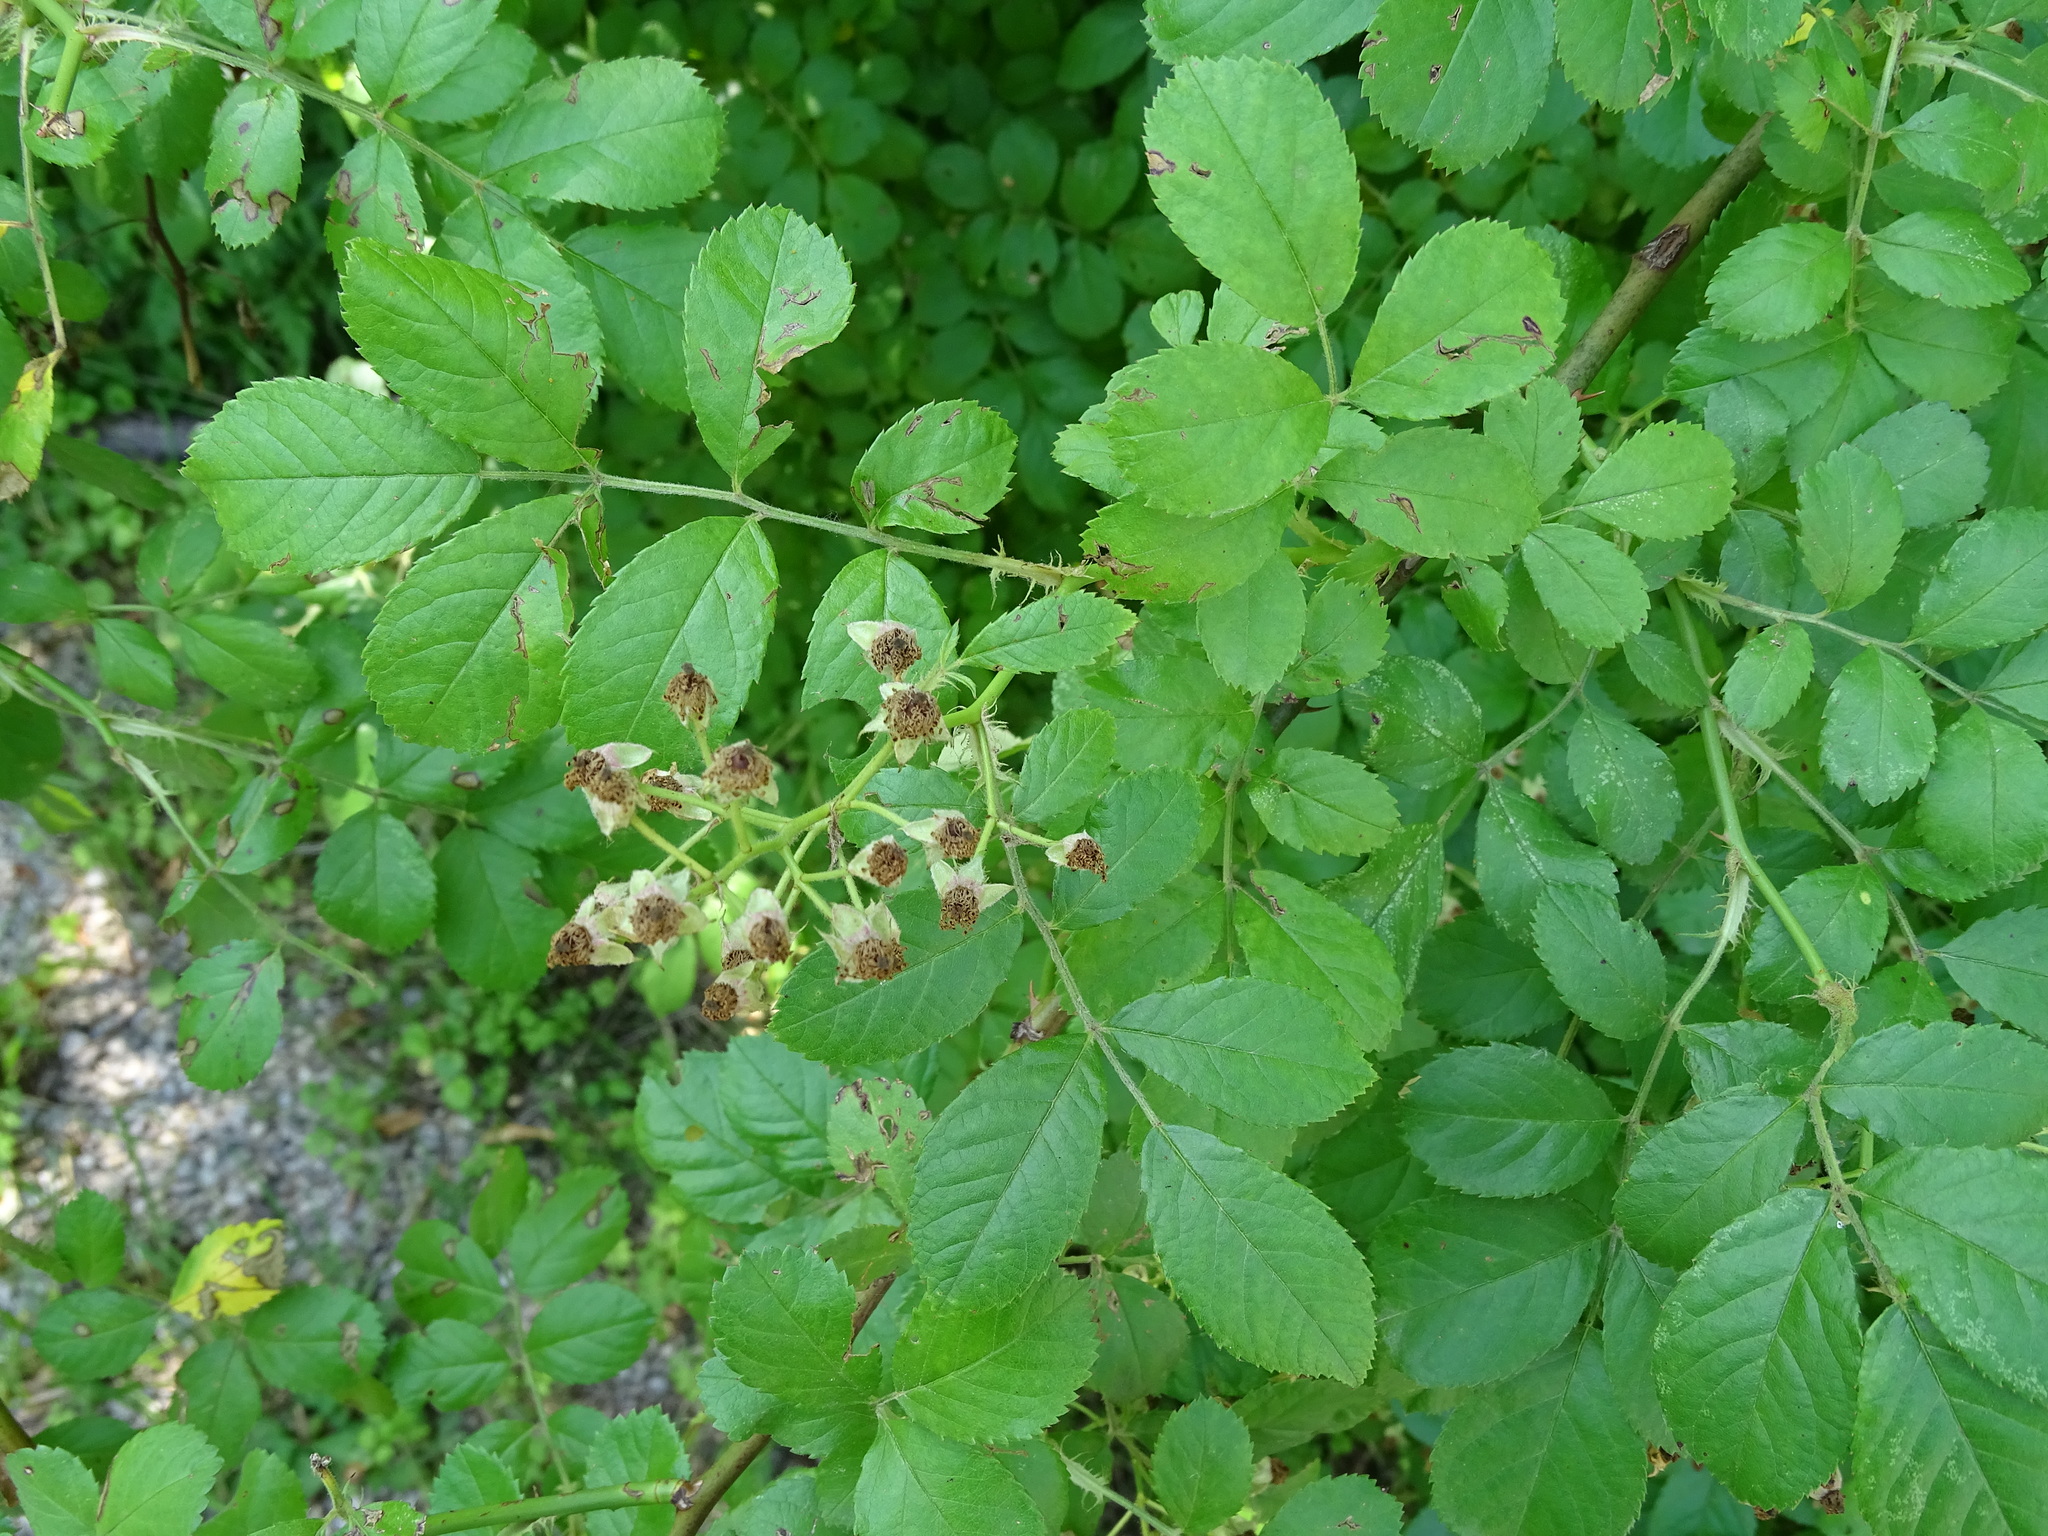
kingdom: Plantae
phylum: Tracheophyta
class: Magnoliopsida
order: Rosales
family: Rosaceae
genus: Rosa
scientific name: Rosa multiflora
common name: Multiflora rose
